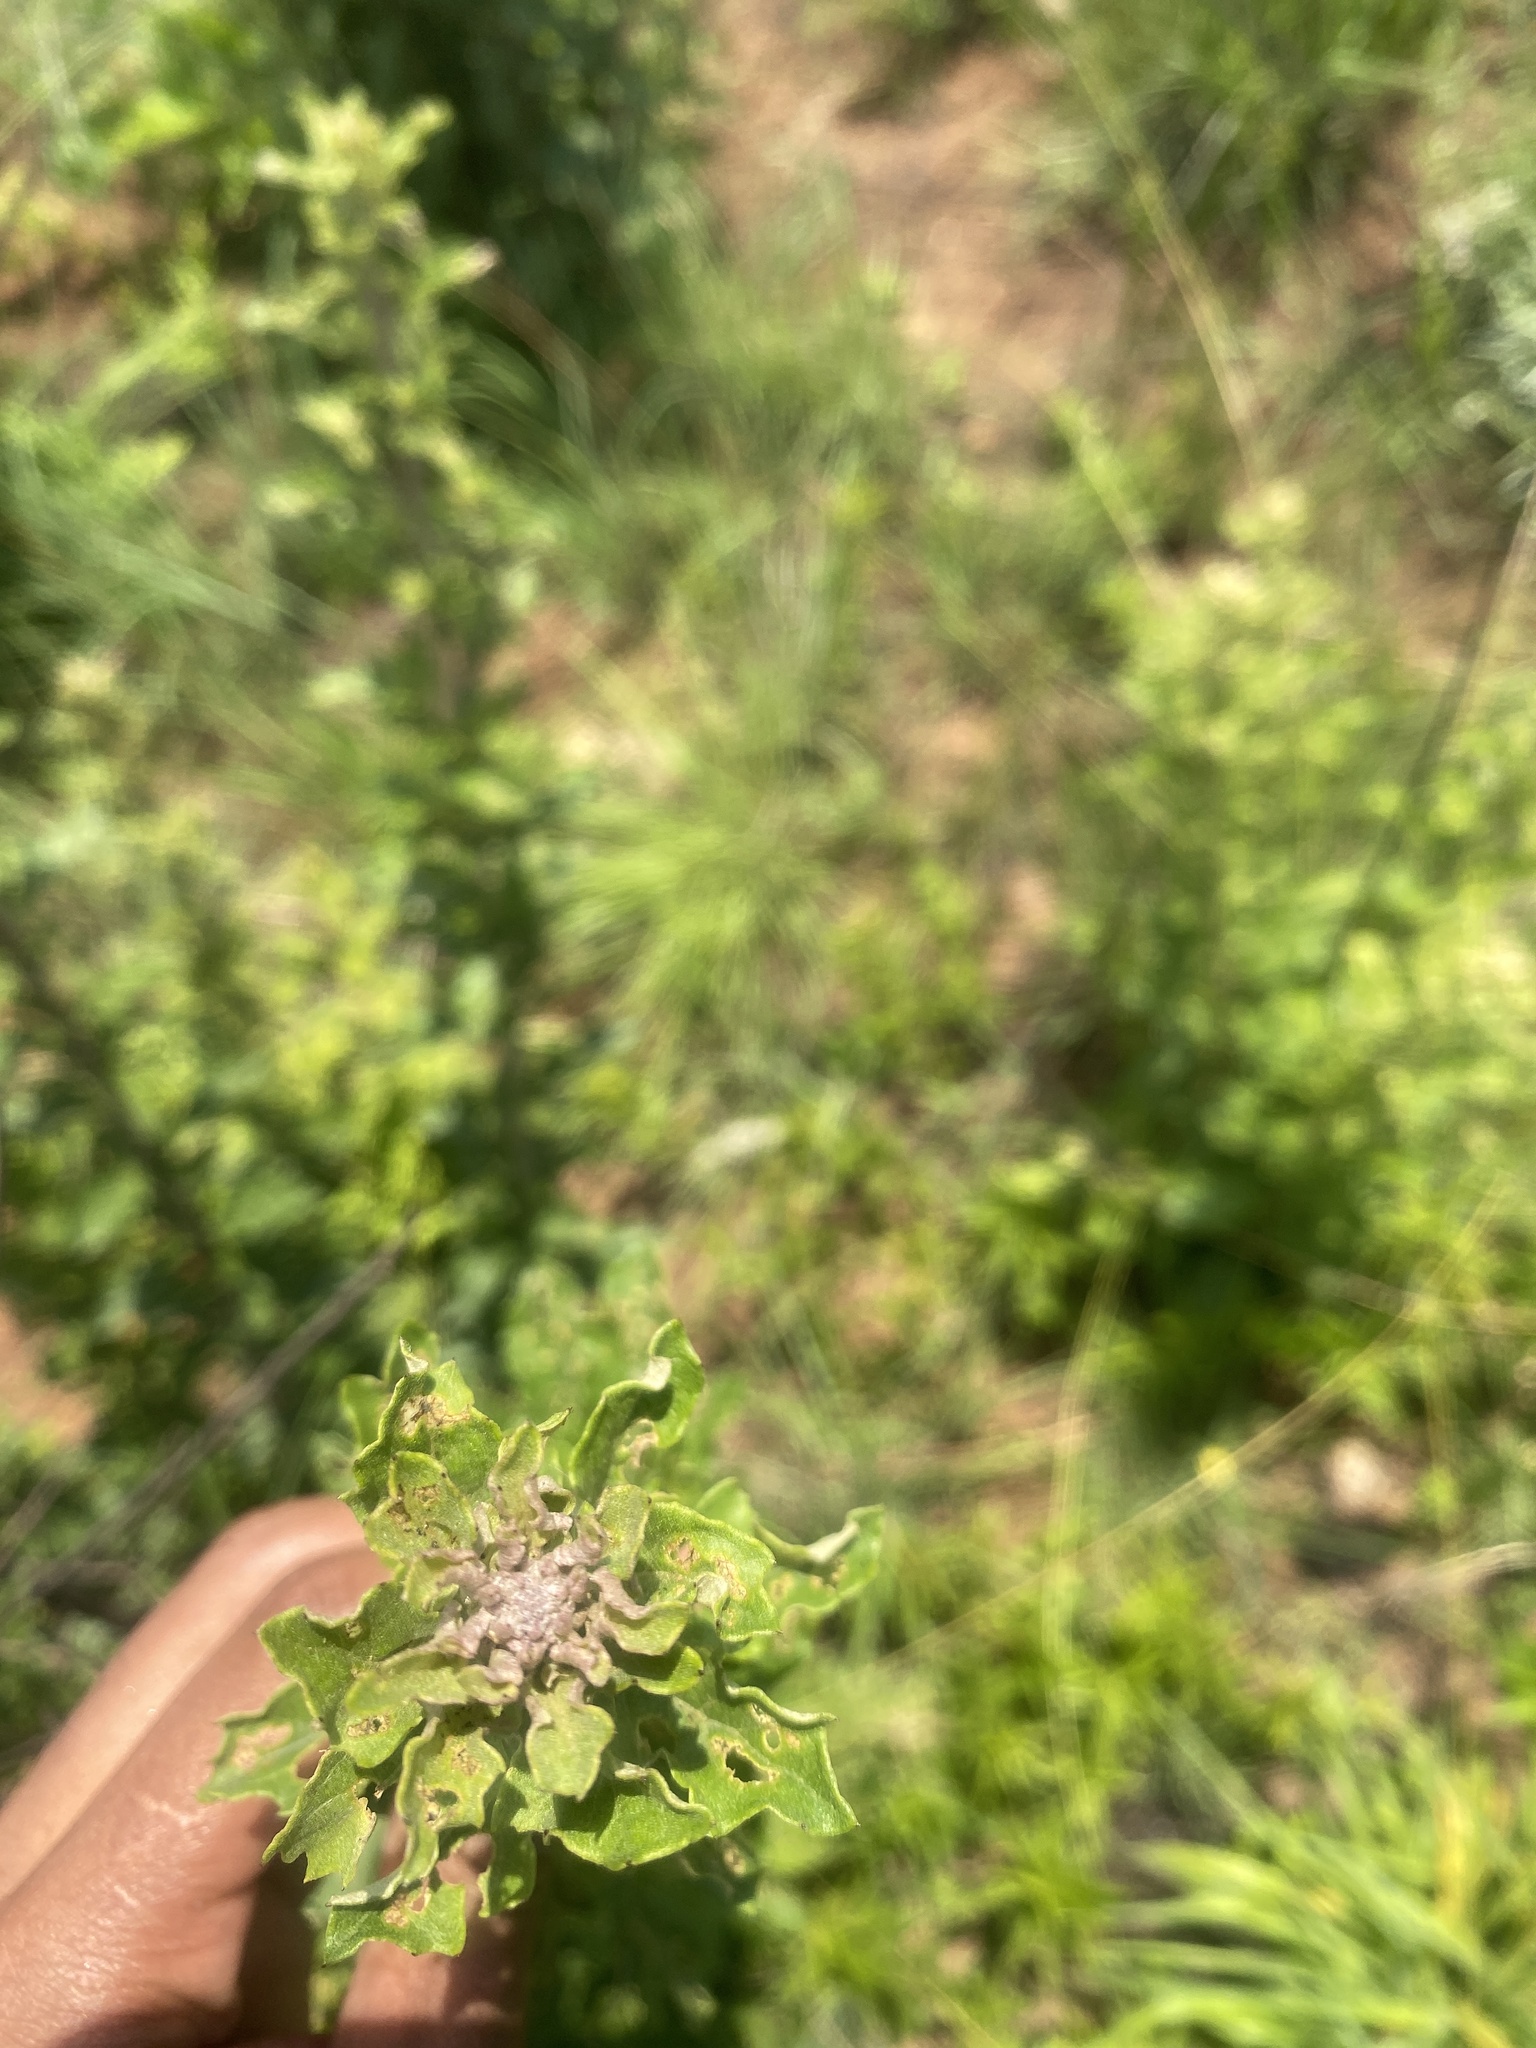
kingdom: Plantae
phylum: Tracheophyta
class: Magnoliopsida
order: Asterales
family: Asteraceae
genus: Gymnanthemum
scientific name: Gymnanthemum corymbosum
